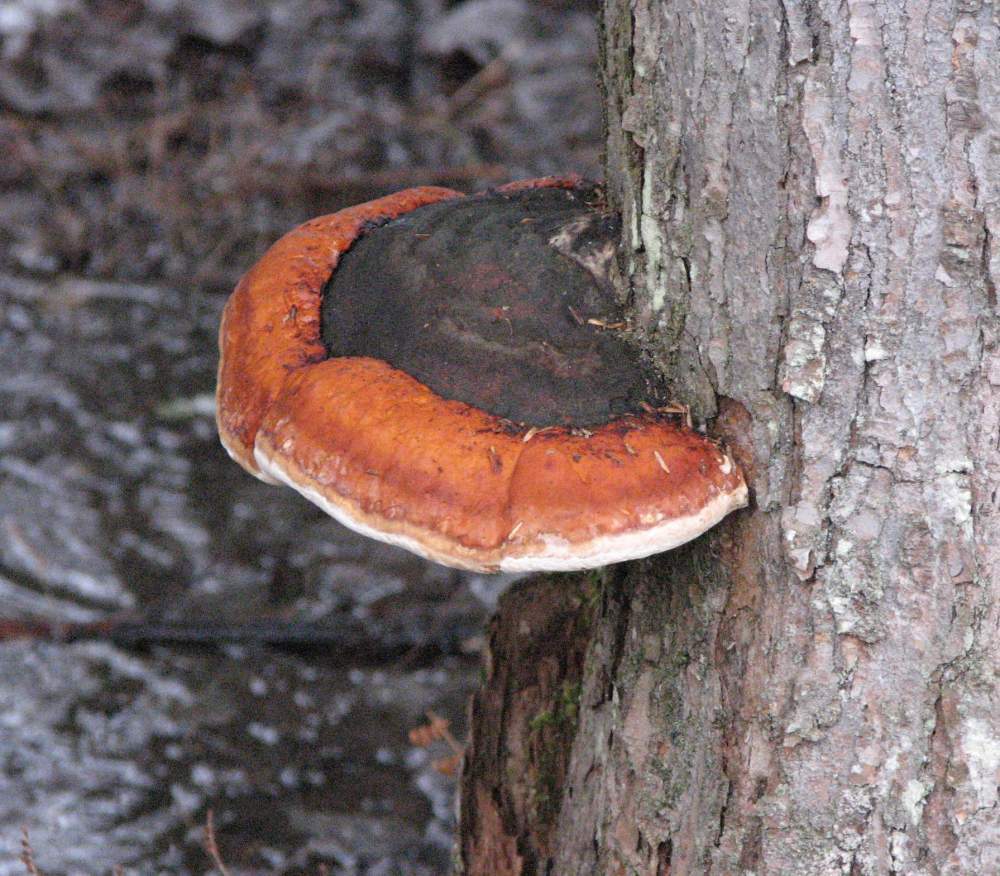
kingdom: Fungi
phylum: Basidiomycota
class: Agaricomycetes
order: Polyporales
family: Fomitopsidaceae
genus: Fomitopsis
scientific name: Fomitopsis mounceae
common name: Northern red belt
